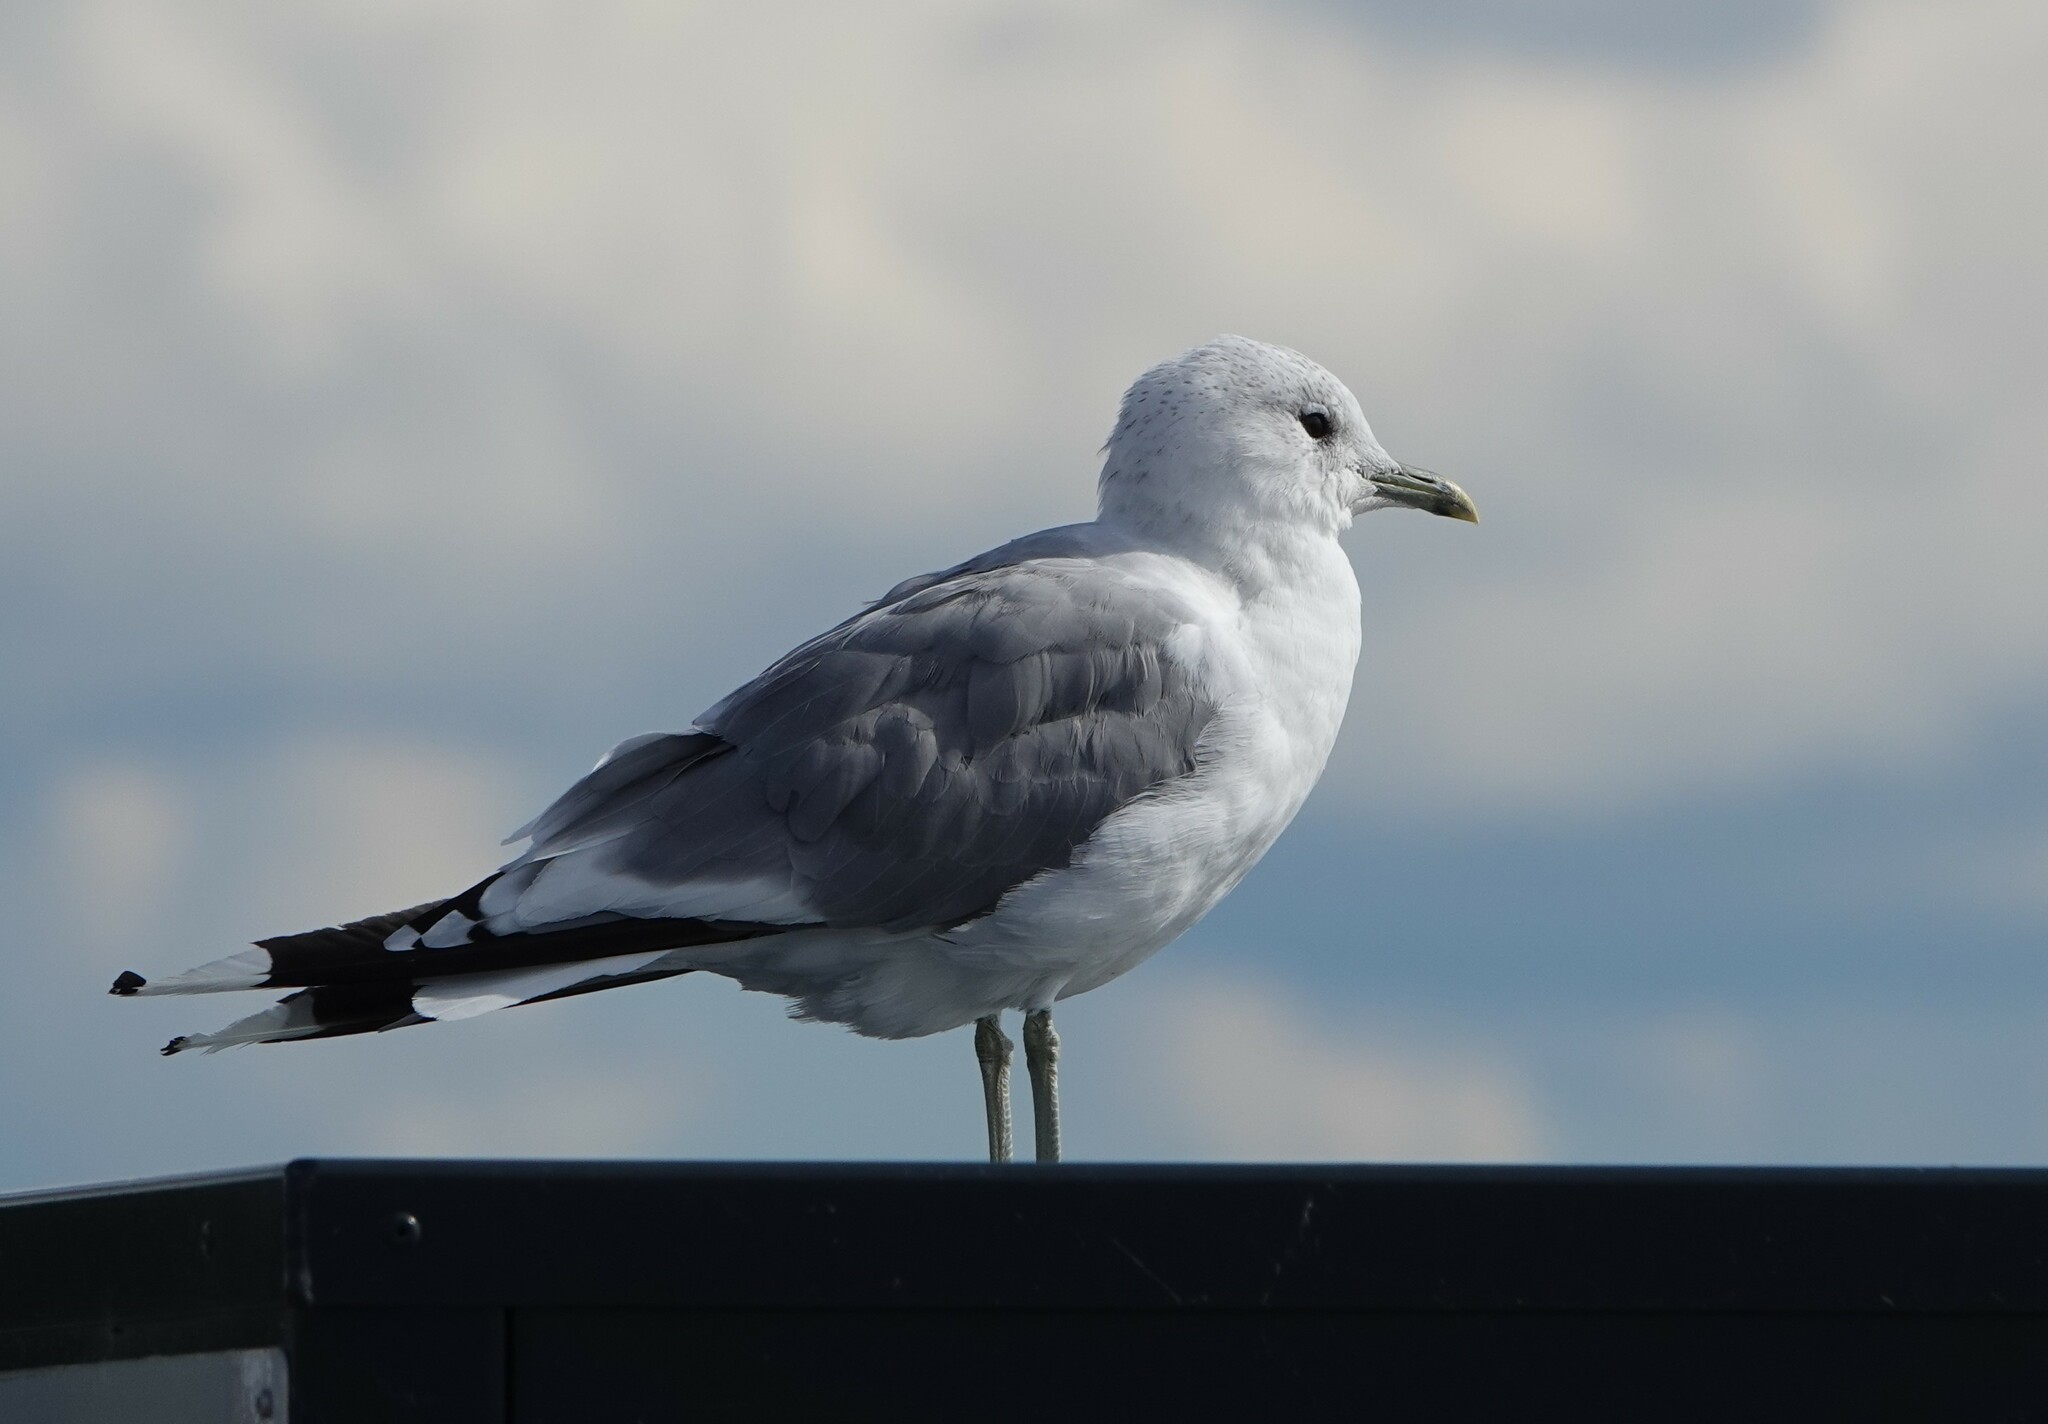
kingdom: Animalia
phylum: Chordata
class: Aves
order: Charadriiformes
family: Laridae
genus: Larus
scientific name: Larus canus
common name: Mew gull
